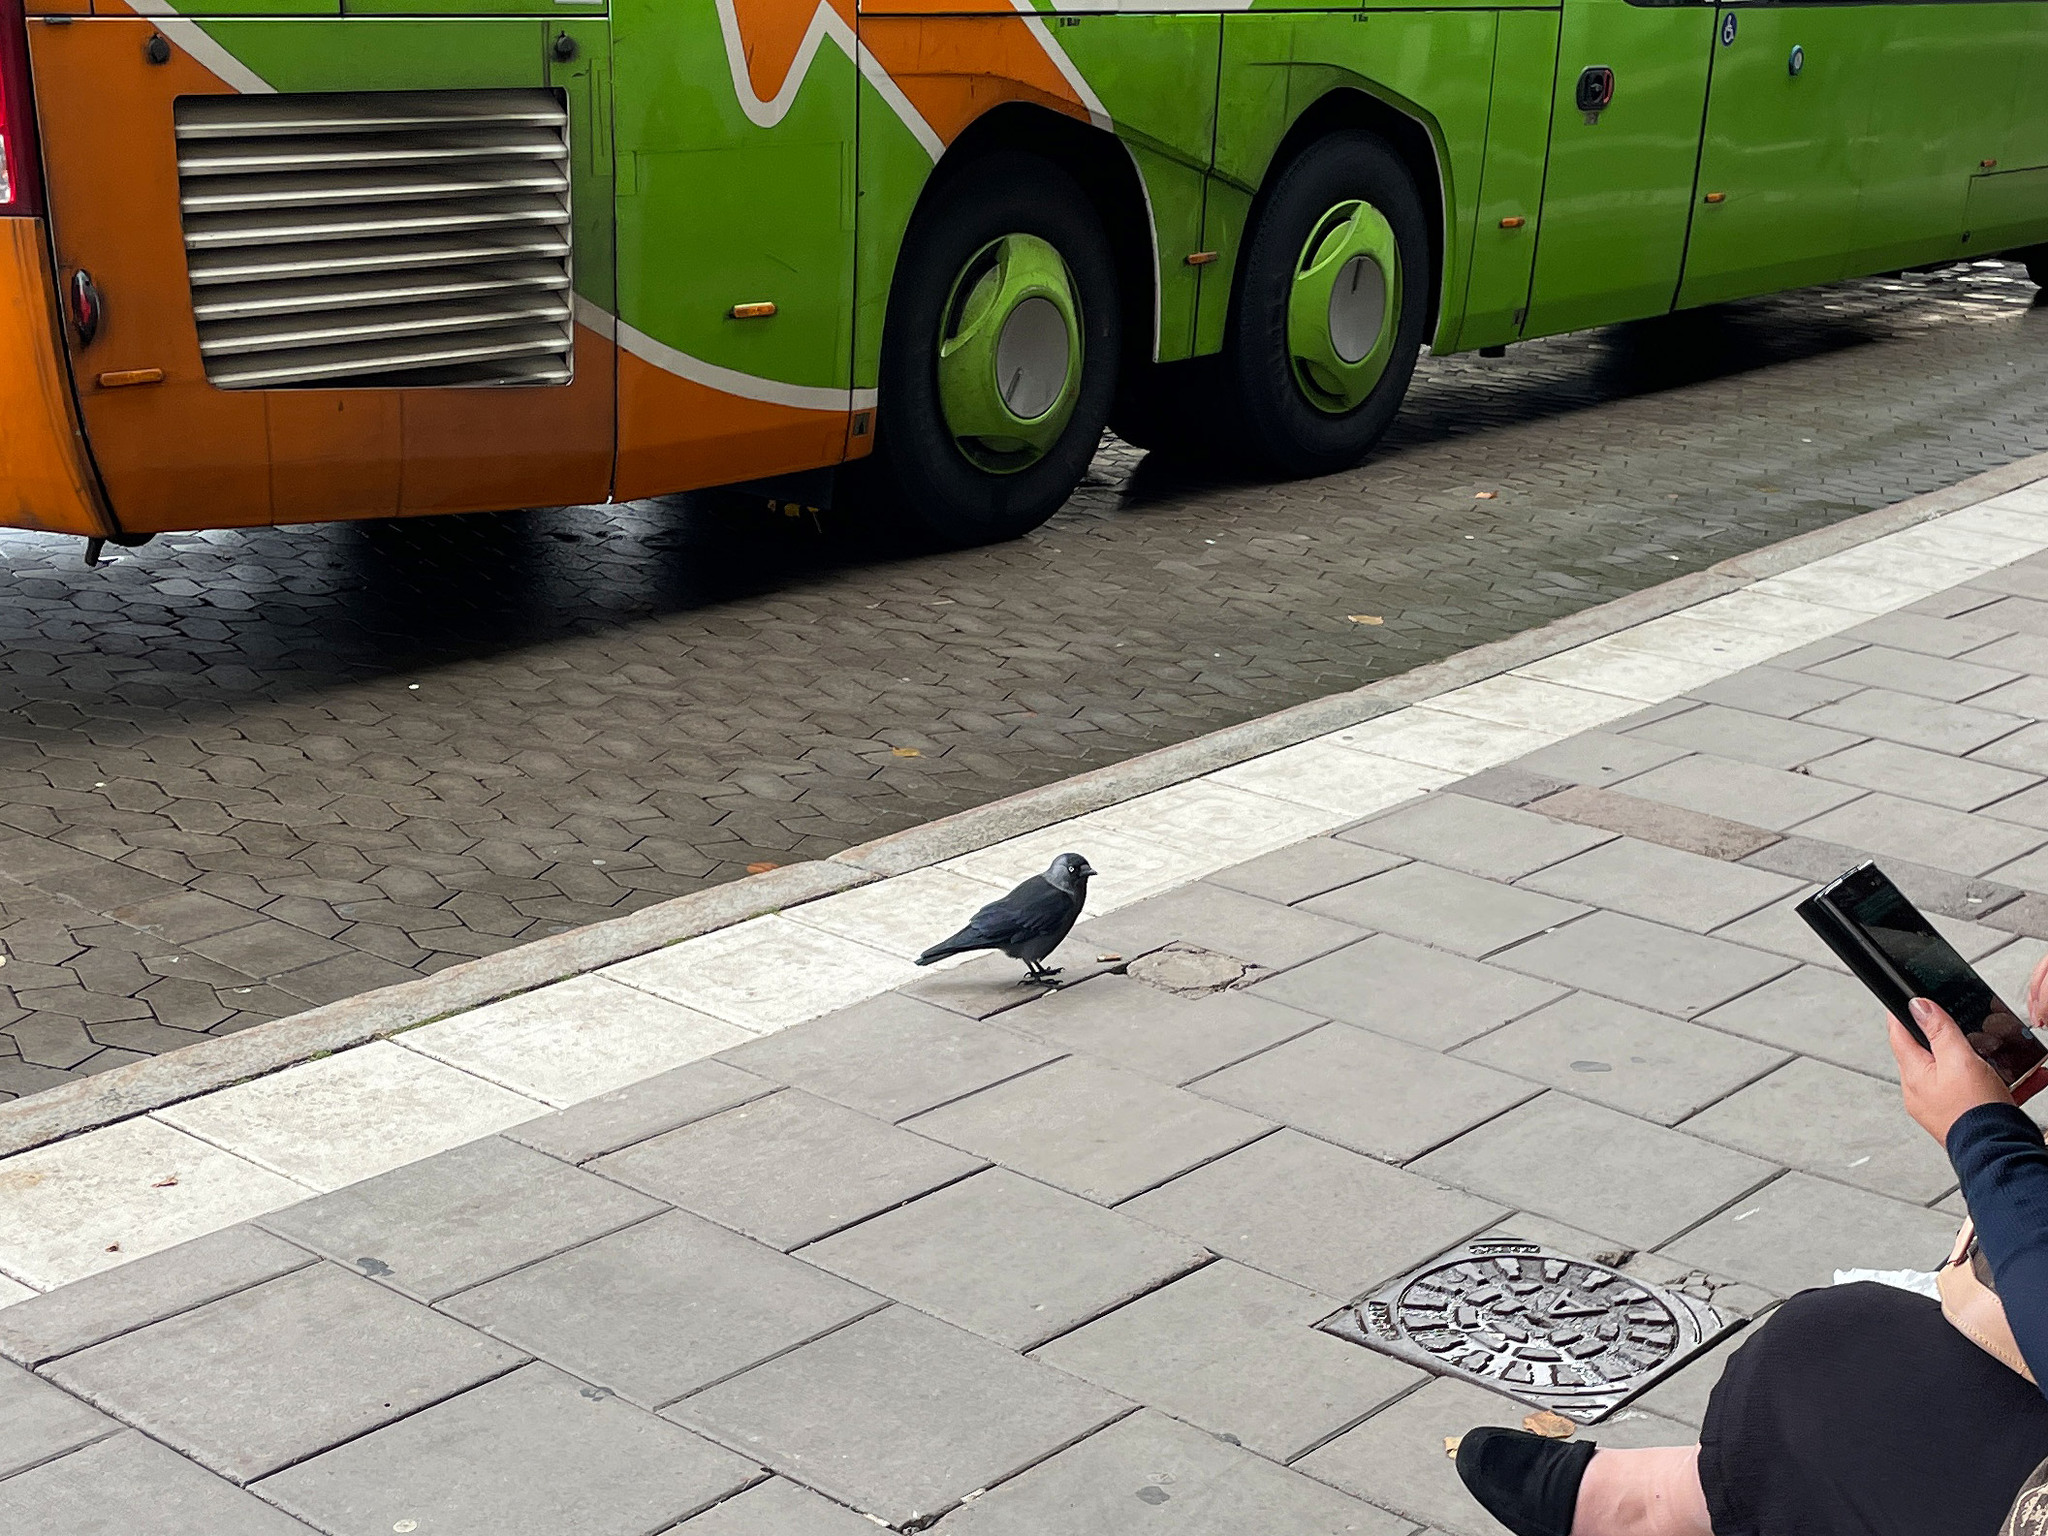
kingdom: Animalia
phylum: Chordata
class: Aves
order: Passeriformes
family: Corvidae
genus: Coloeus
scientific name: Coloeus monedula
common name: Western jackdaw
